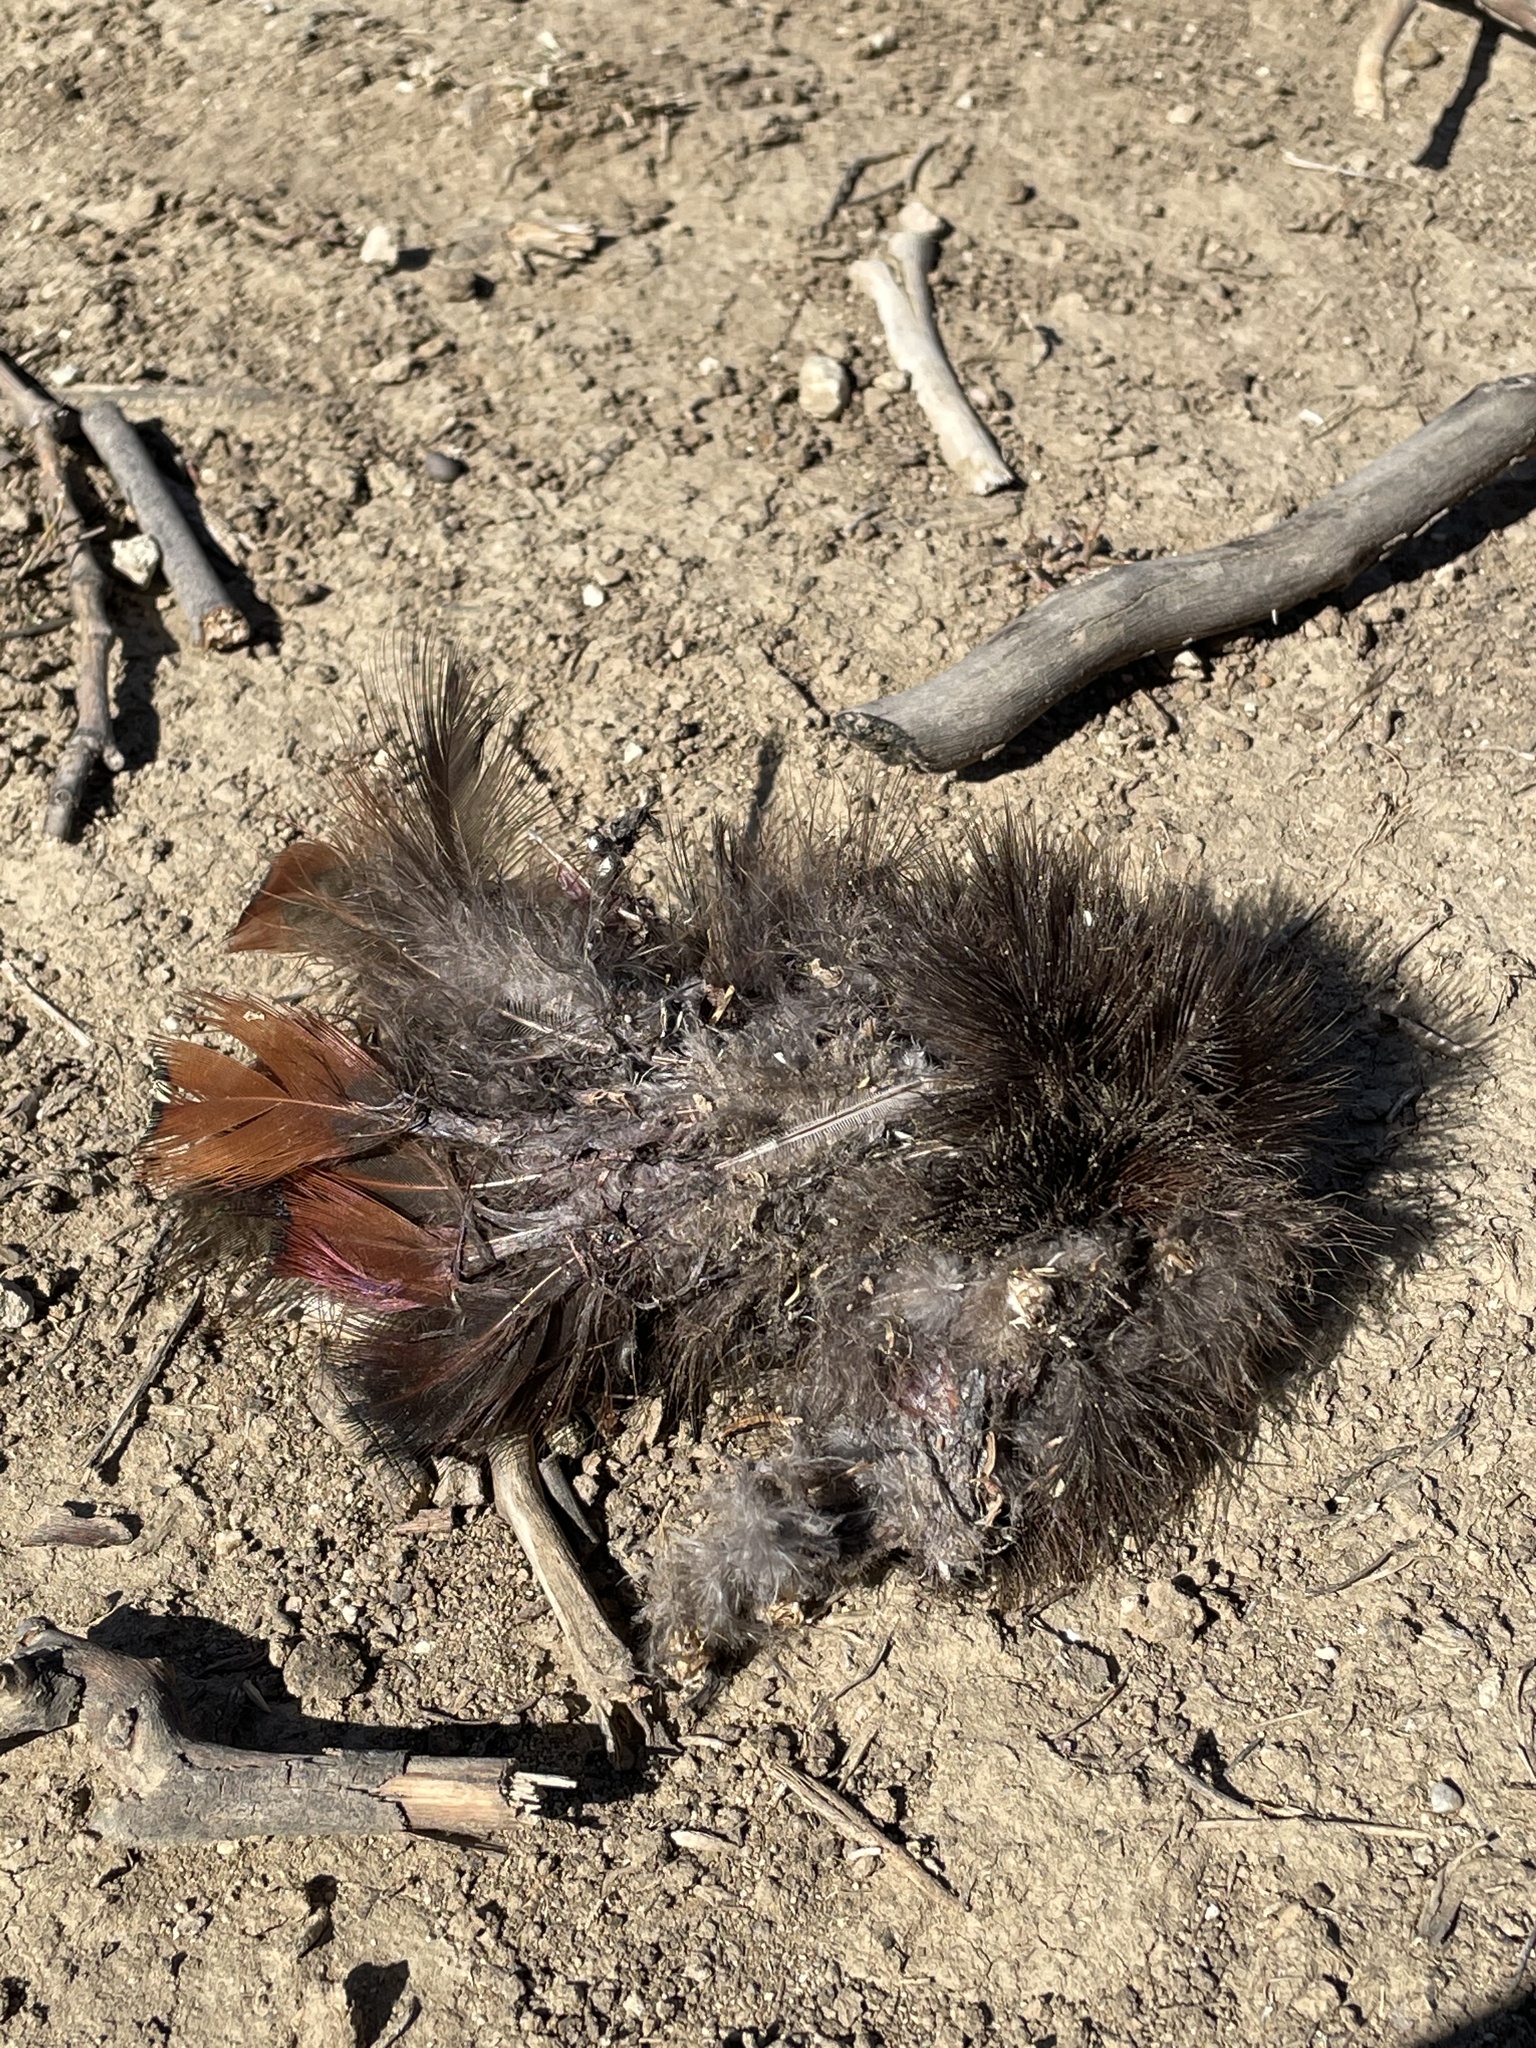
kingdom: Animalia
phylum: Chordata
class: Aves
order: Galliformes
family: Phasianidae
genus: Phasianus
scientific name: Phasianus colchicus
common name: Common pheasant
